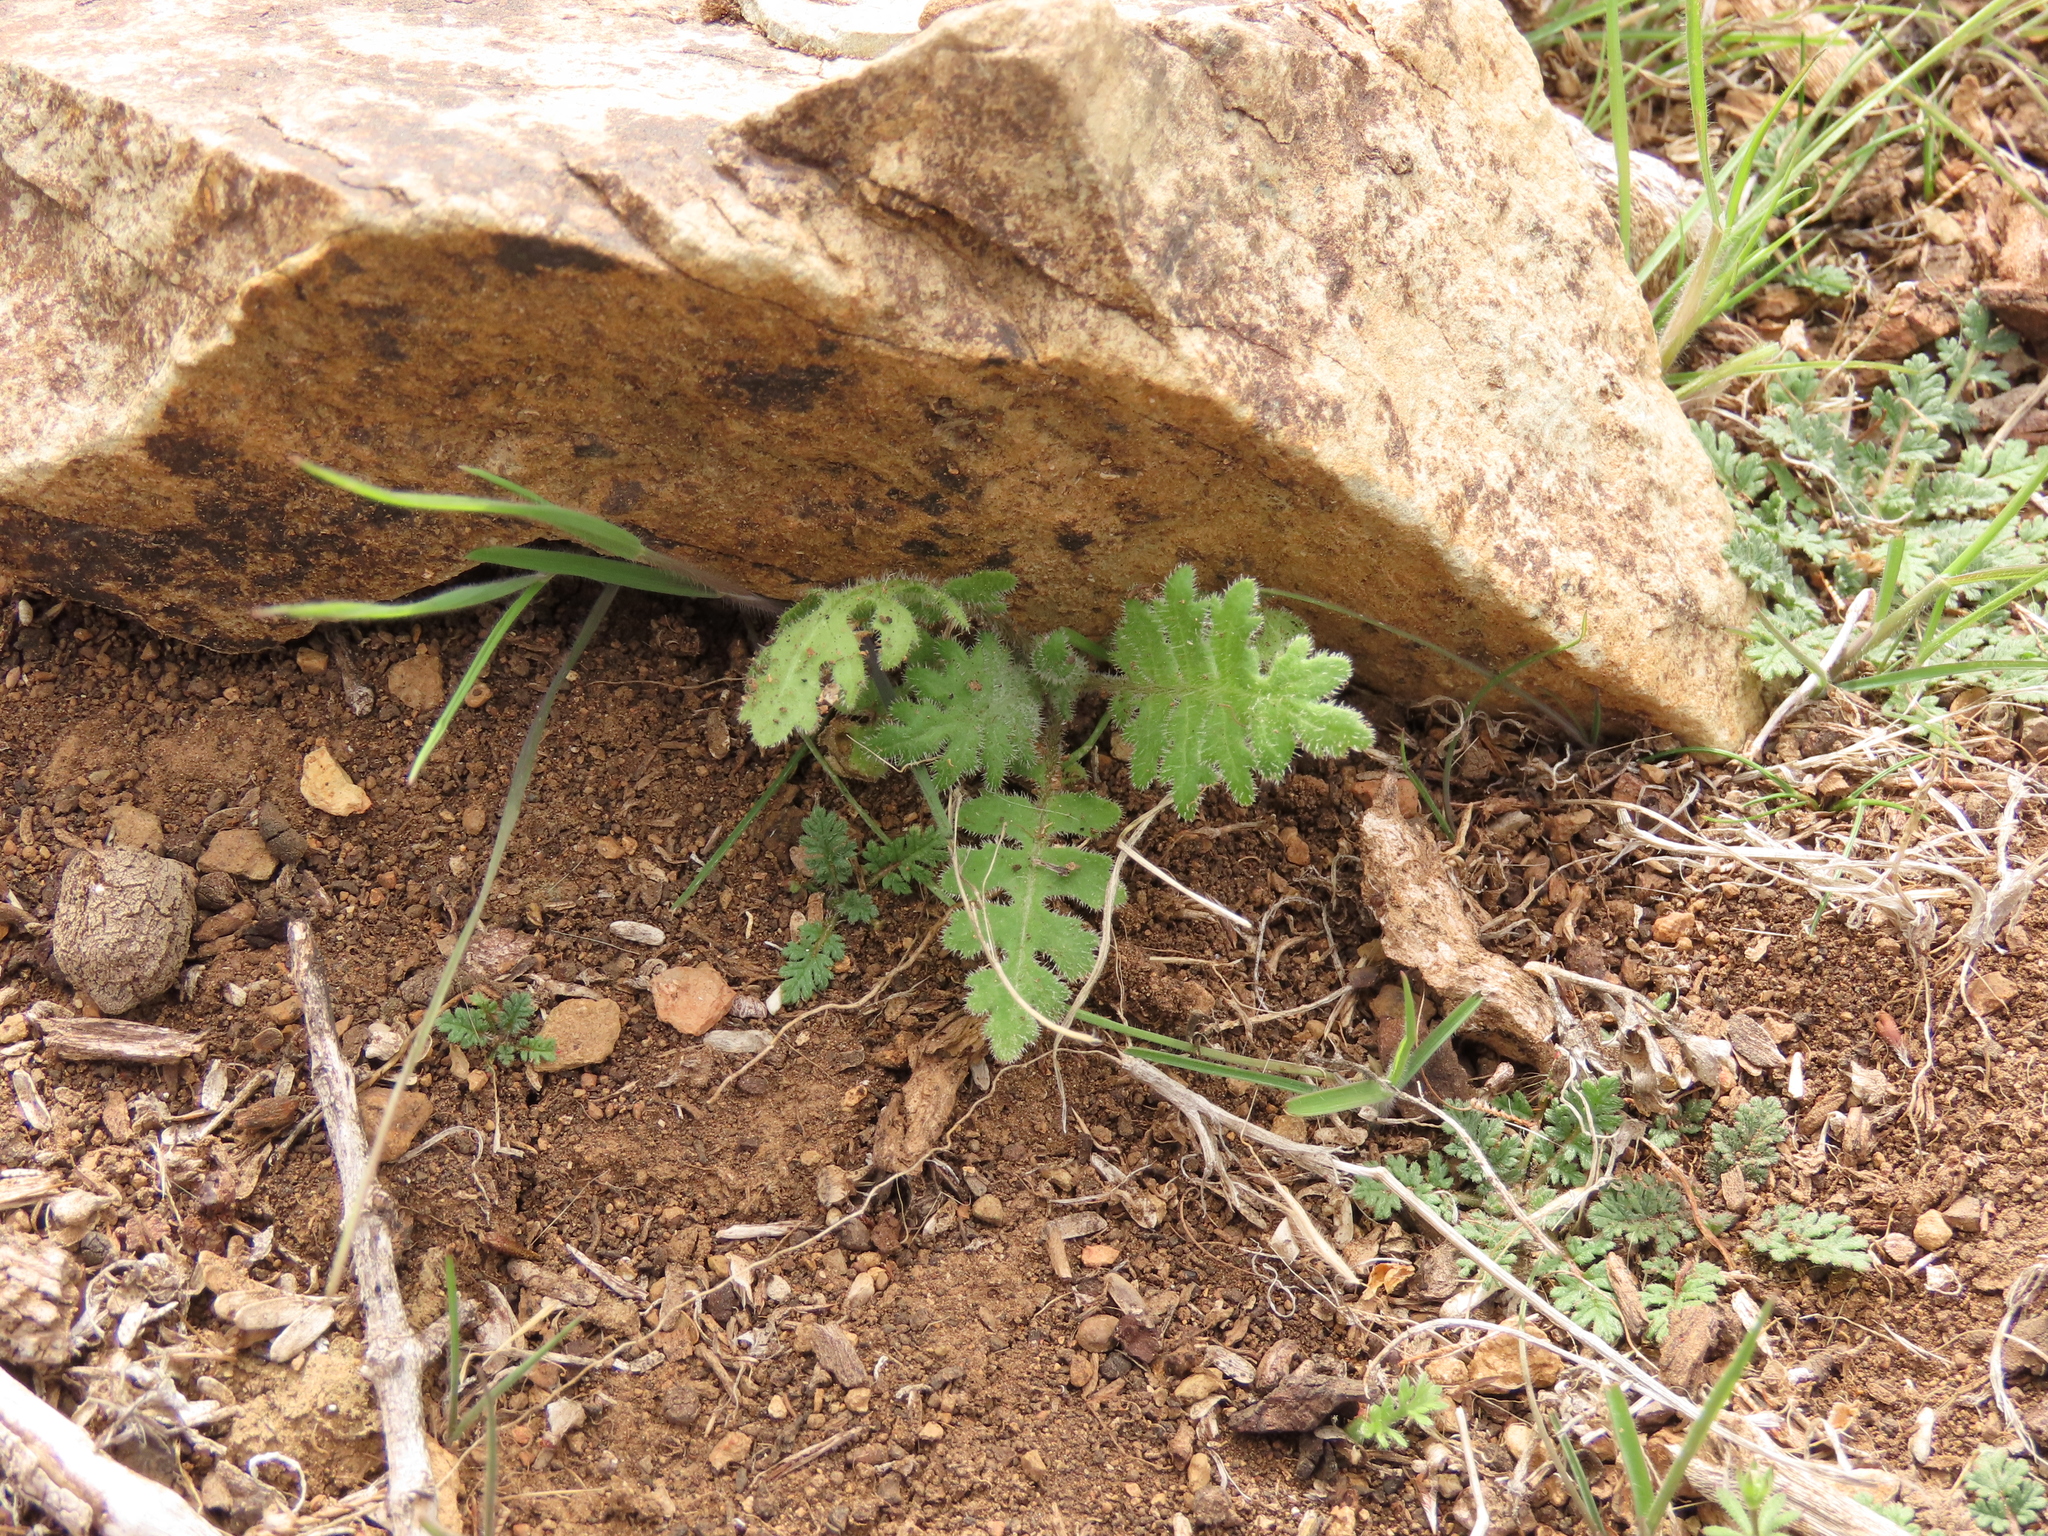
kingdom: Plantae
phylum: Tracheophyta
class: Magnoliopsida
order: Asterales
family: Asteraceae
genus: Moscharia
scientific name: Moscharia pinnatifida
